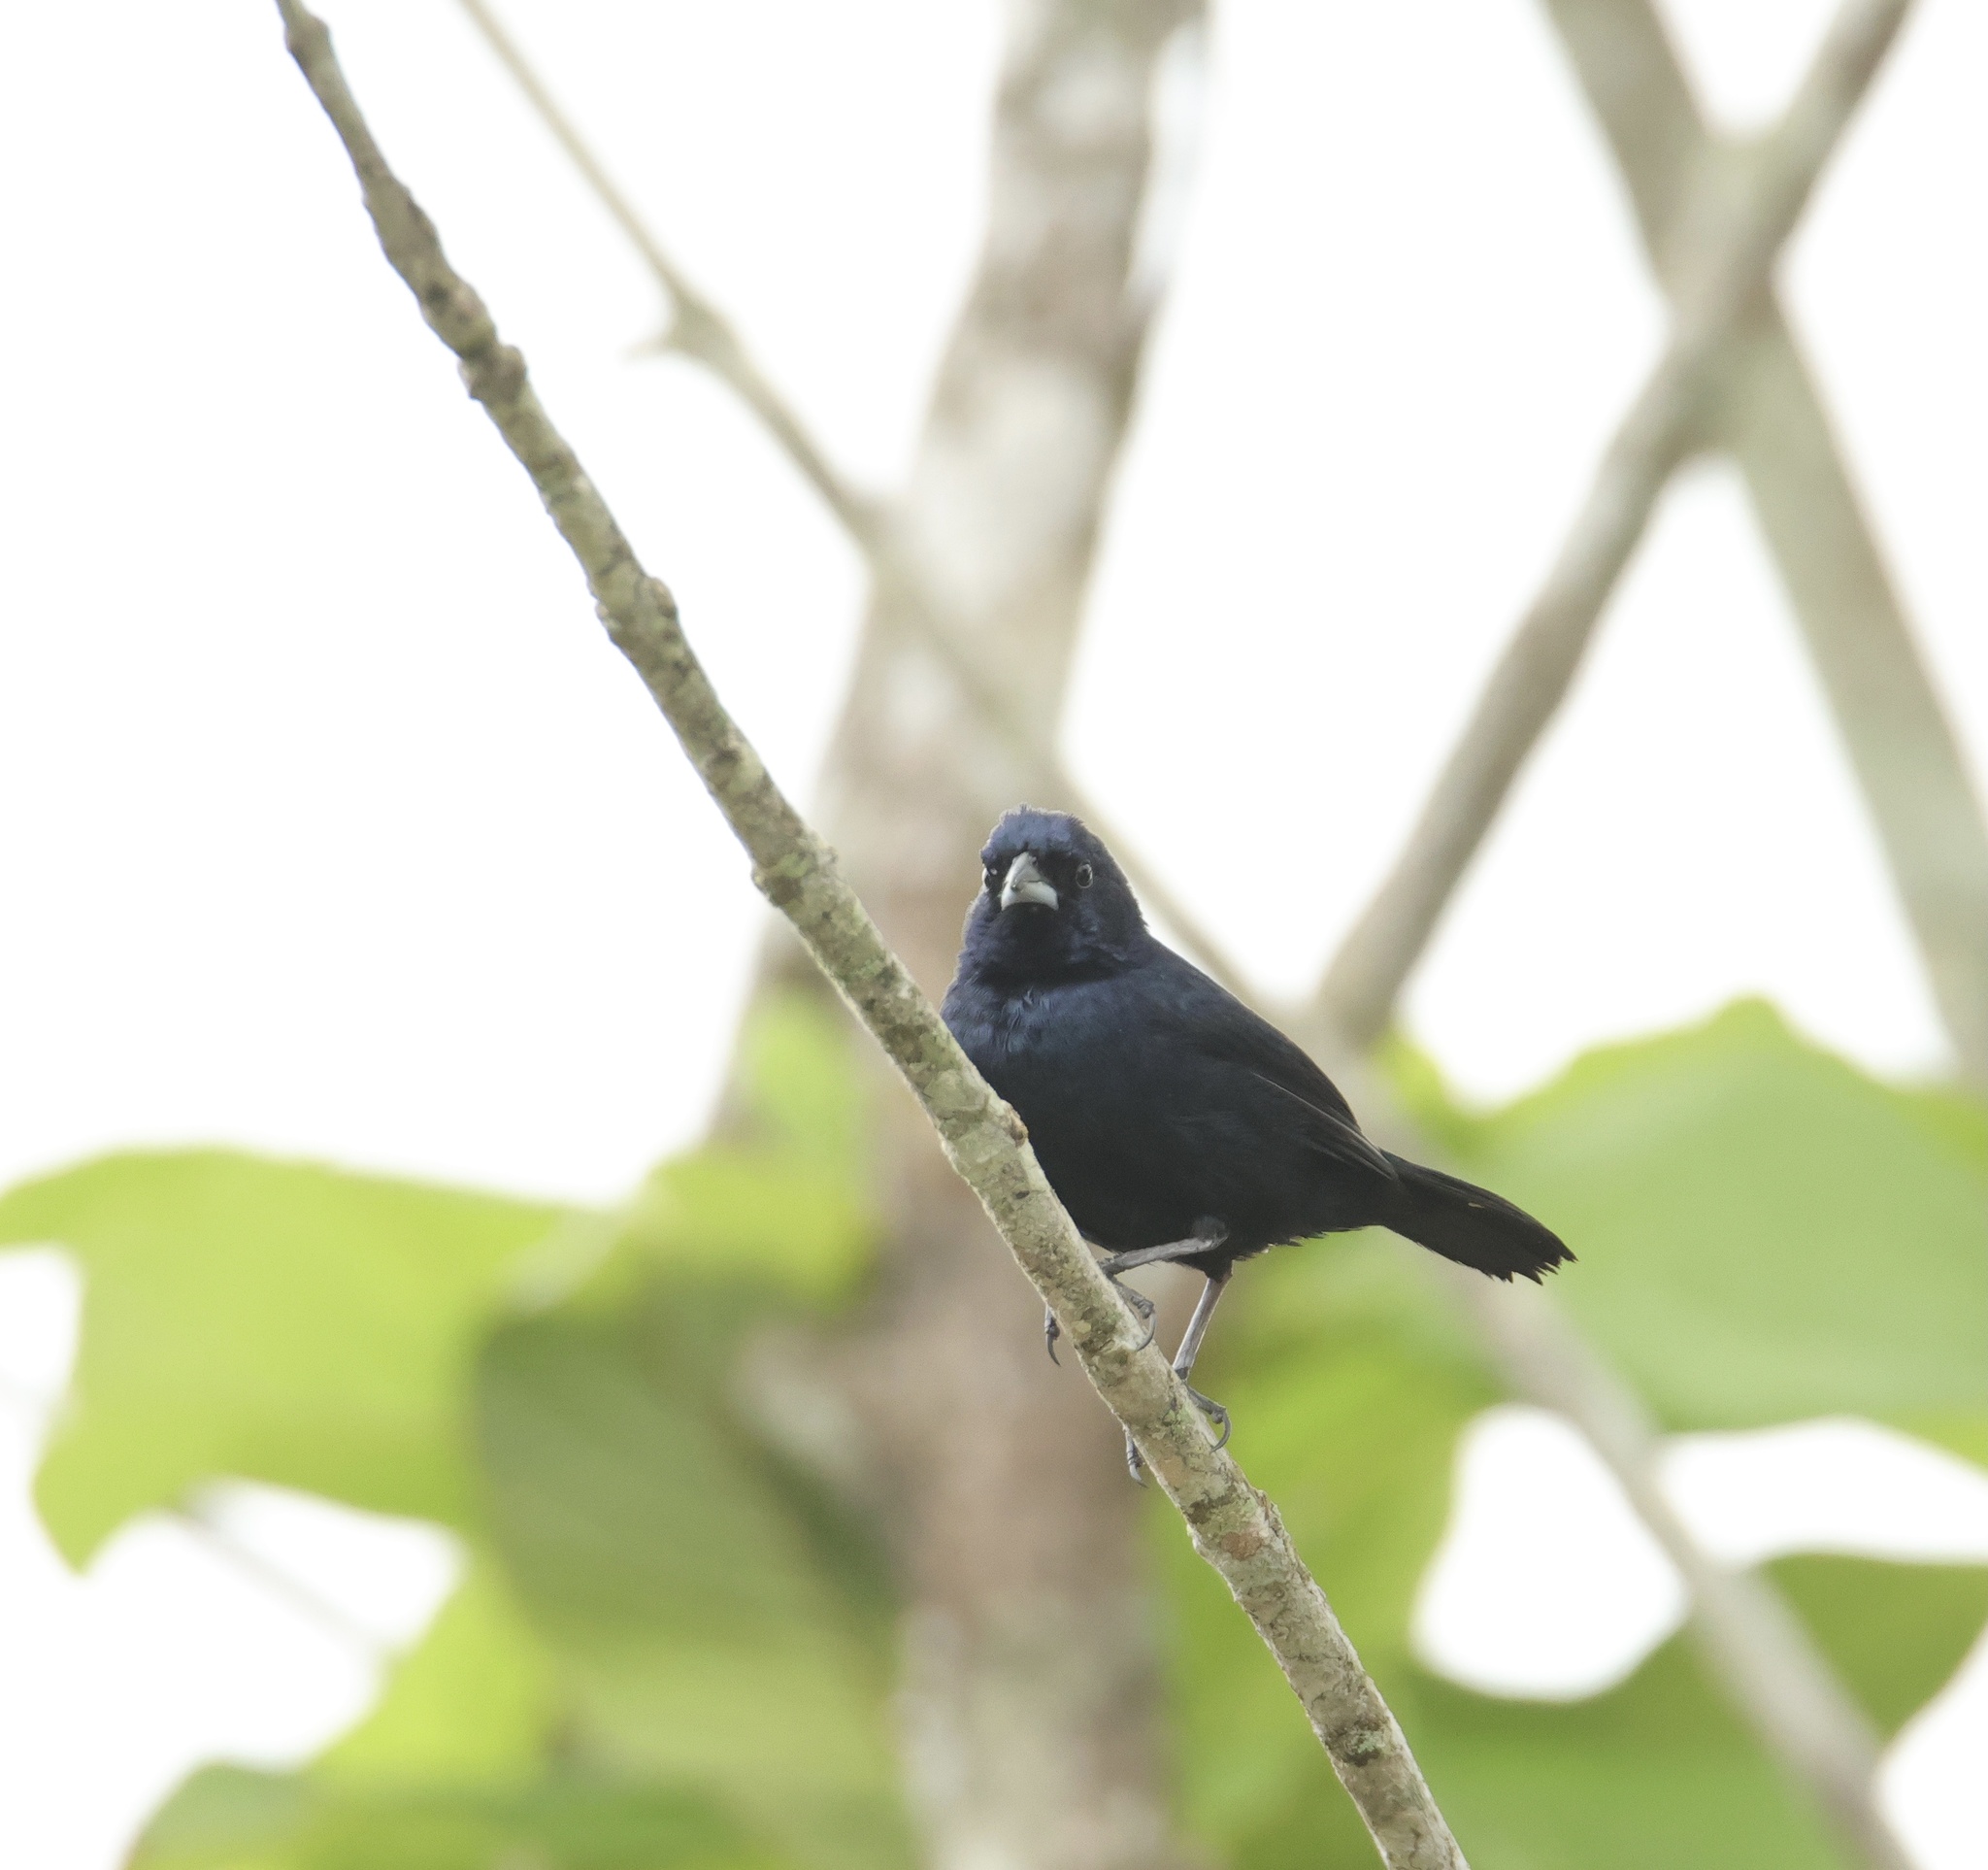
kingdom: Animalia
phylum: Chordata
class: Aves
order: Passeriformes
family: Thraupidae
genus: Volatinia
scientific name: Volatinia jacarina
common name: Blue-black grassquit
